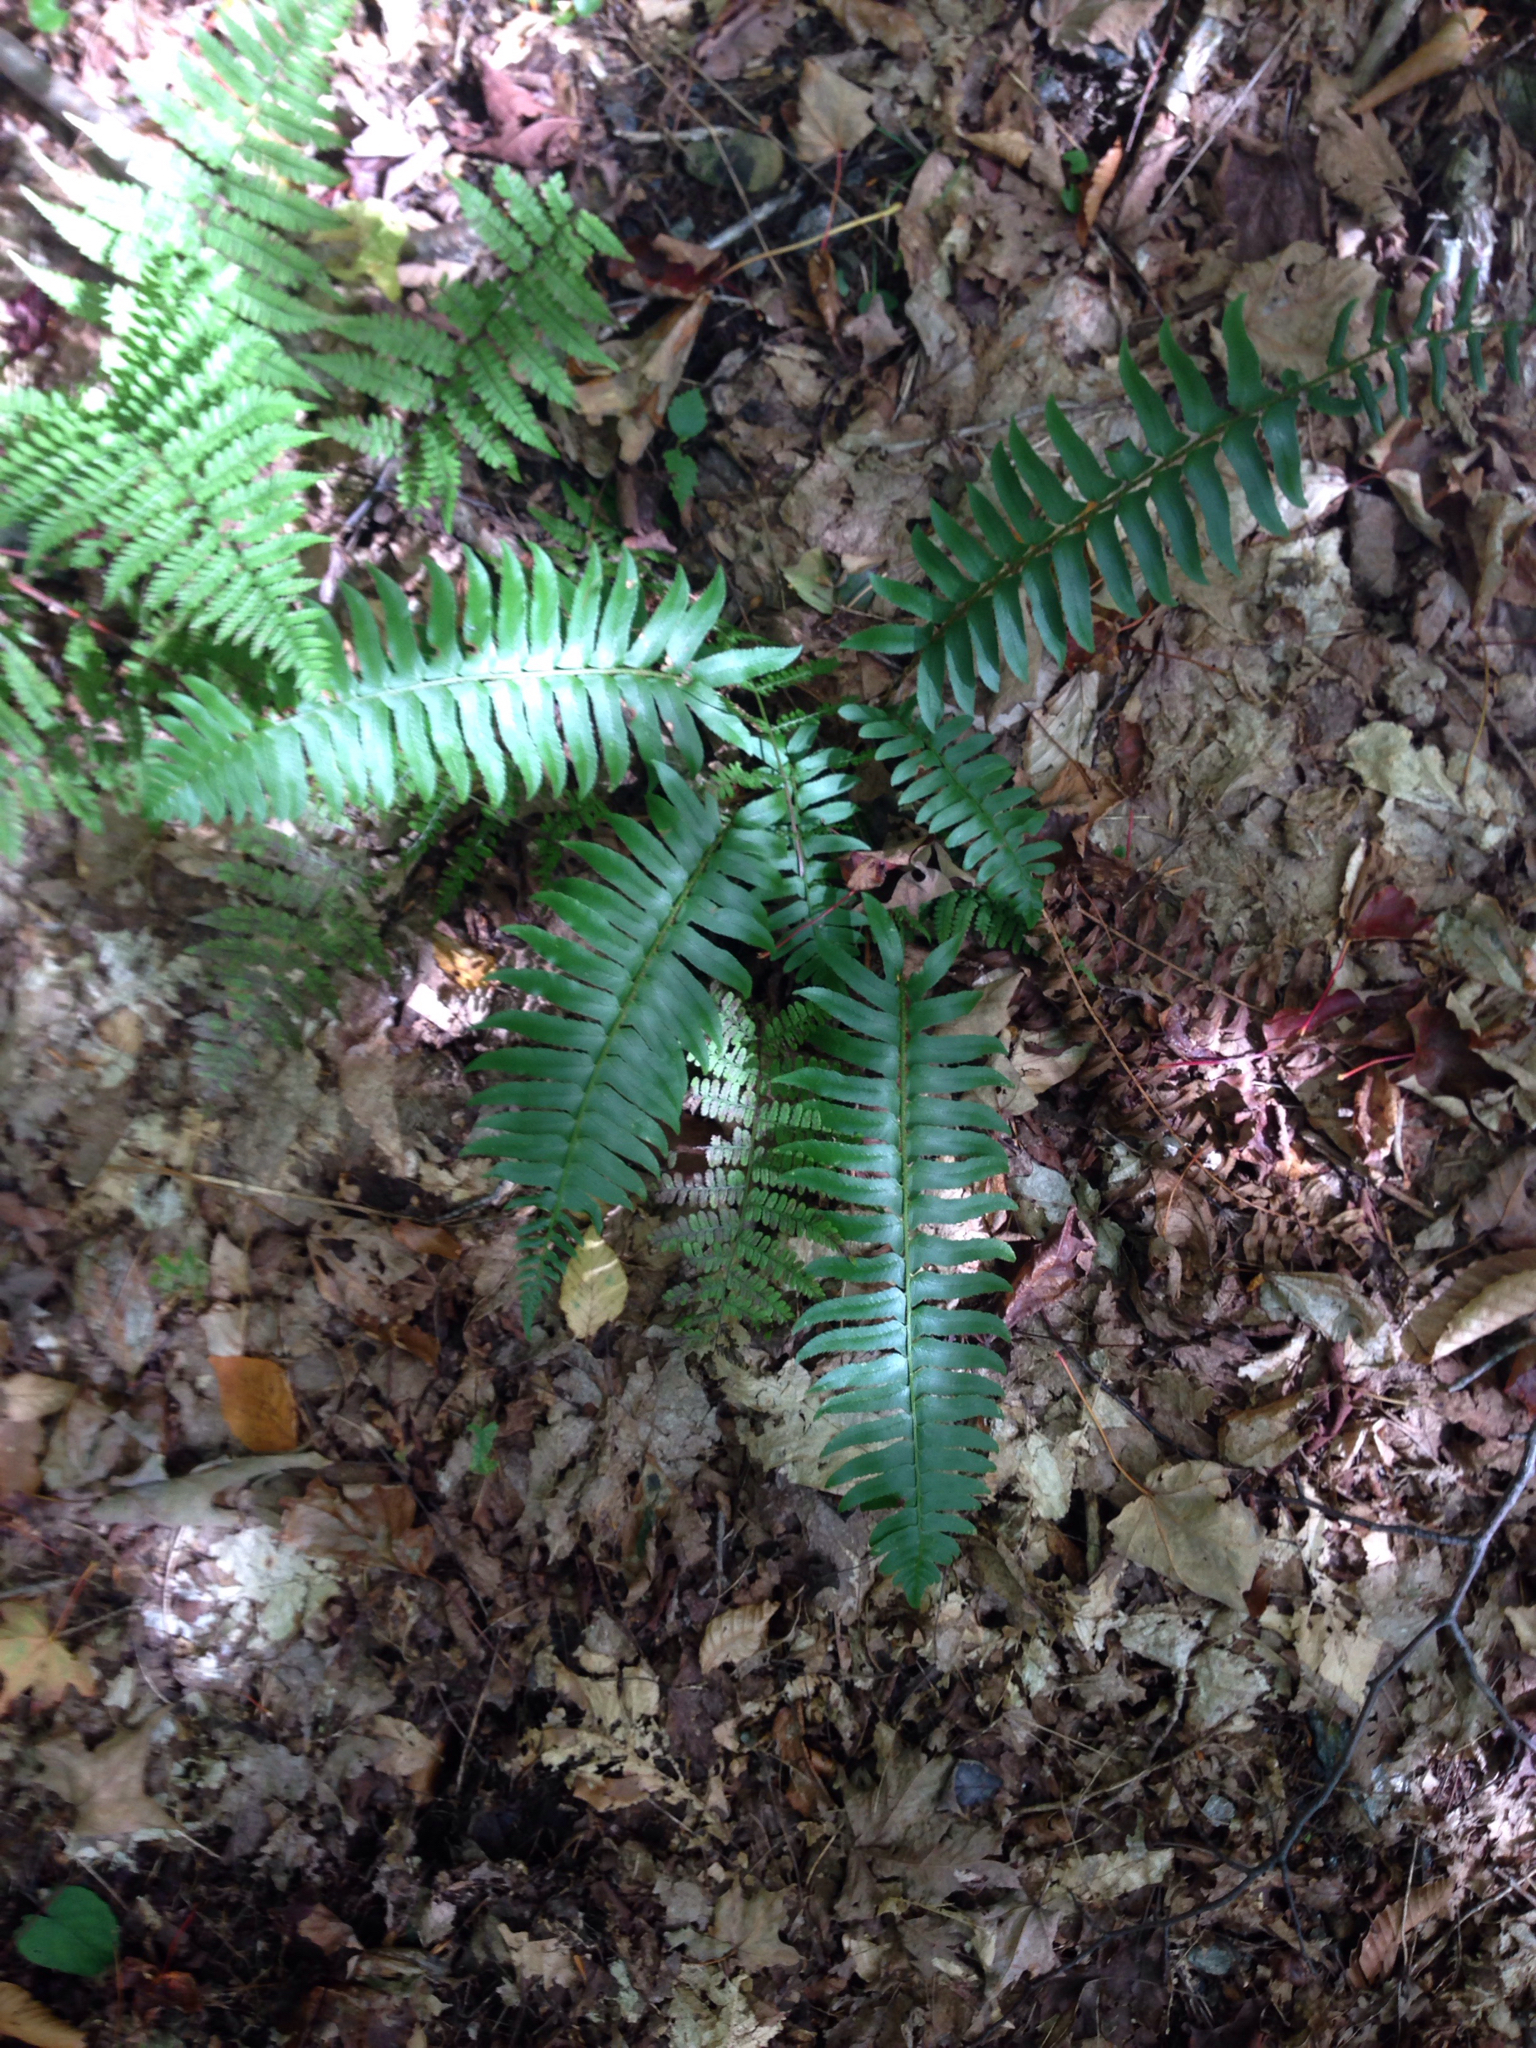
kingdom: Plantae
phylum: Tracheophyta
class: Polypodiopsida
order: Polypodiales
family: Dryopteridaceae
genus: Polystichum
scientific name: Polystichum acrostichoides
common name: Christmas fern
